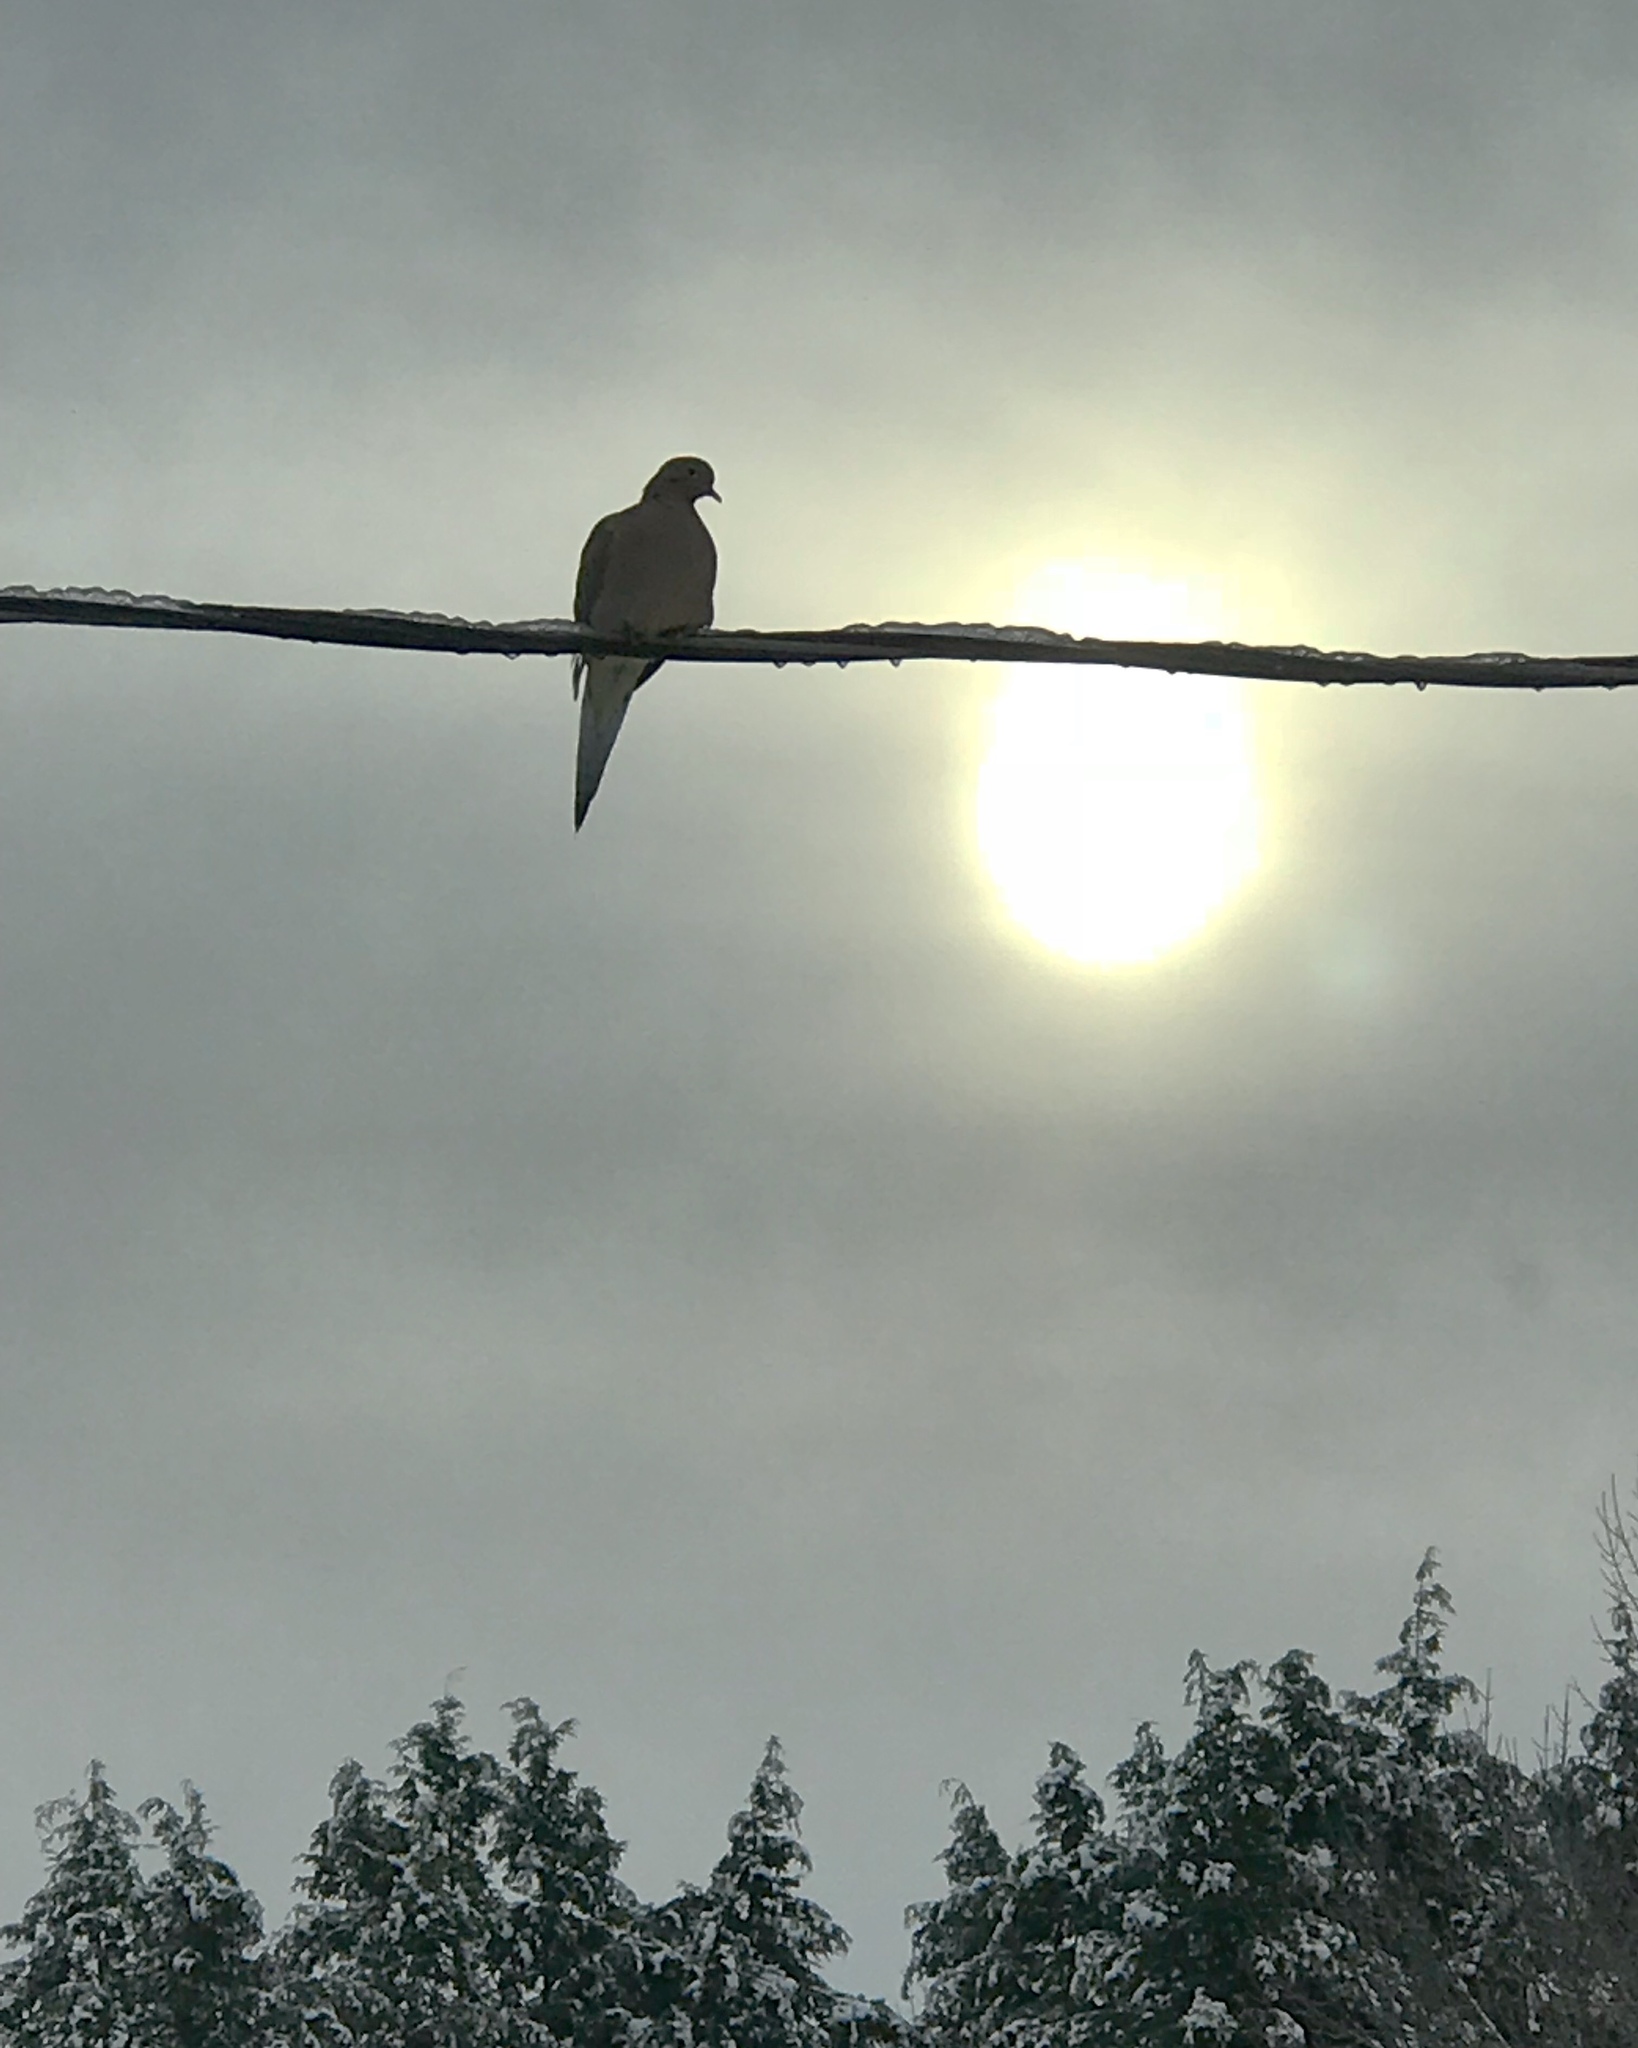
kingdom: Animalia
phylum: Chordata
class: Aves
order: Columbiformes
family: Columbidae
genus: Zenaida
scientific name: Zenaida macroura
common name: Mourning dove
